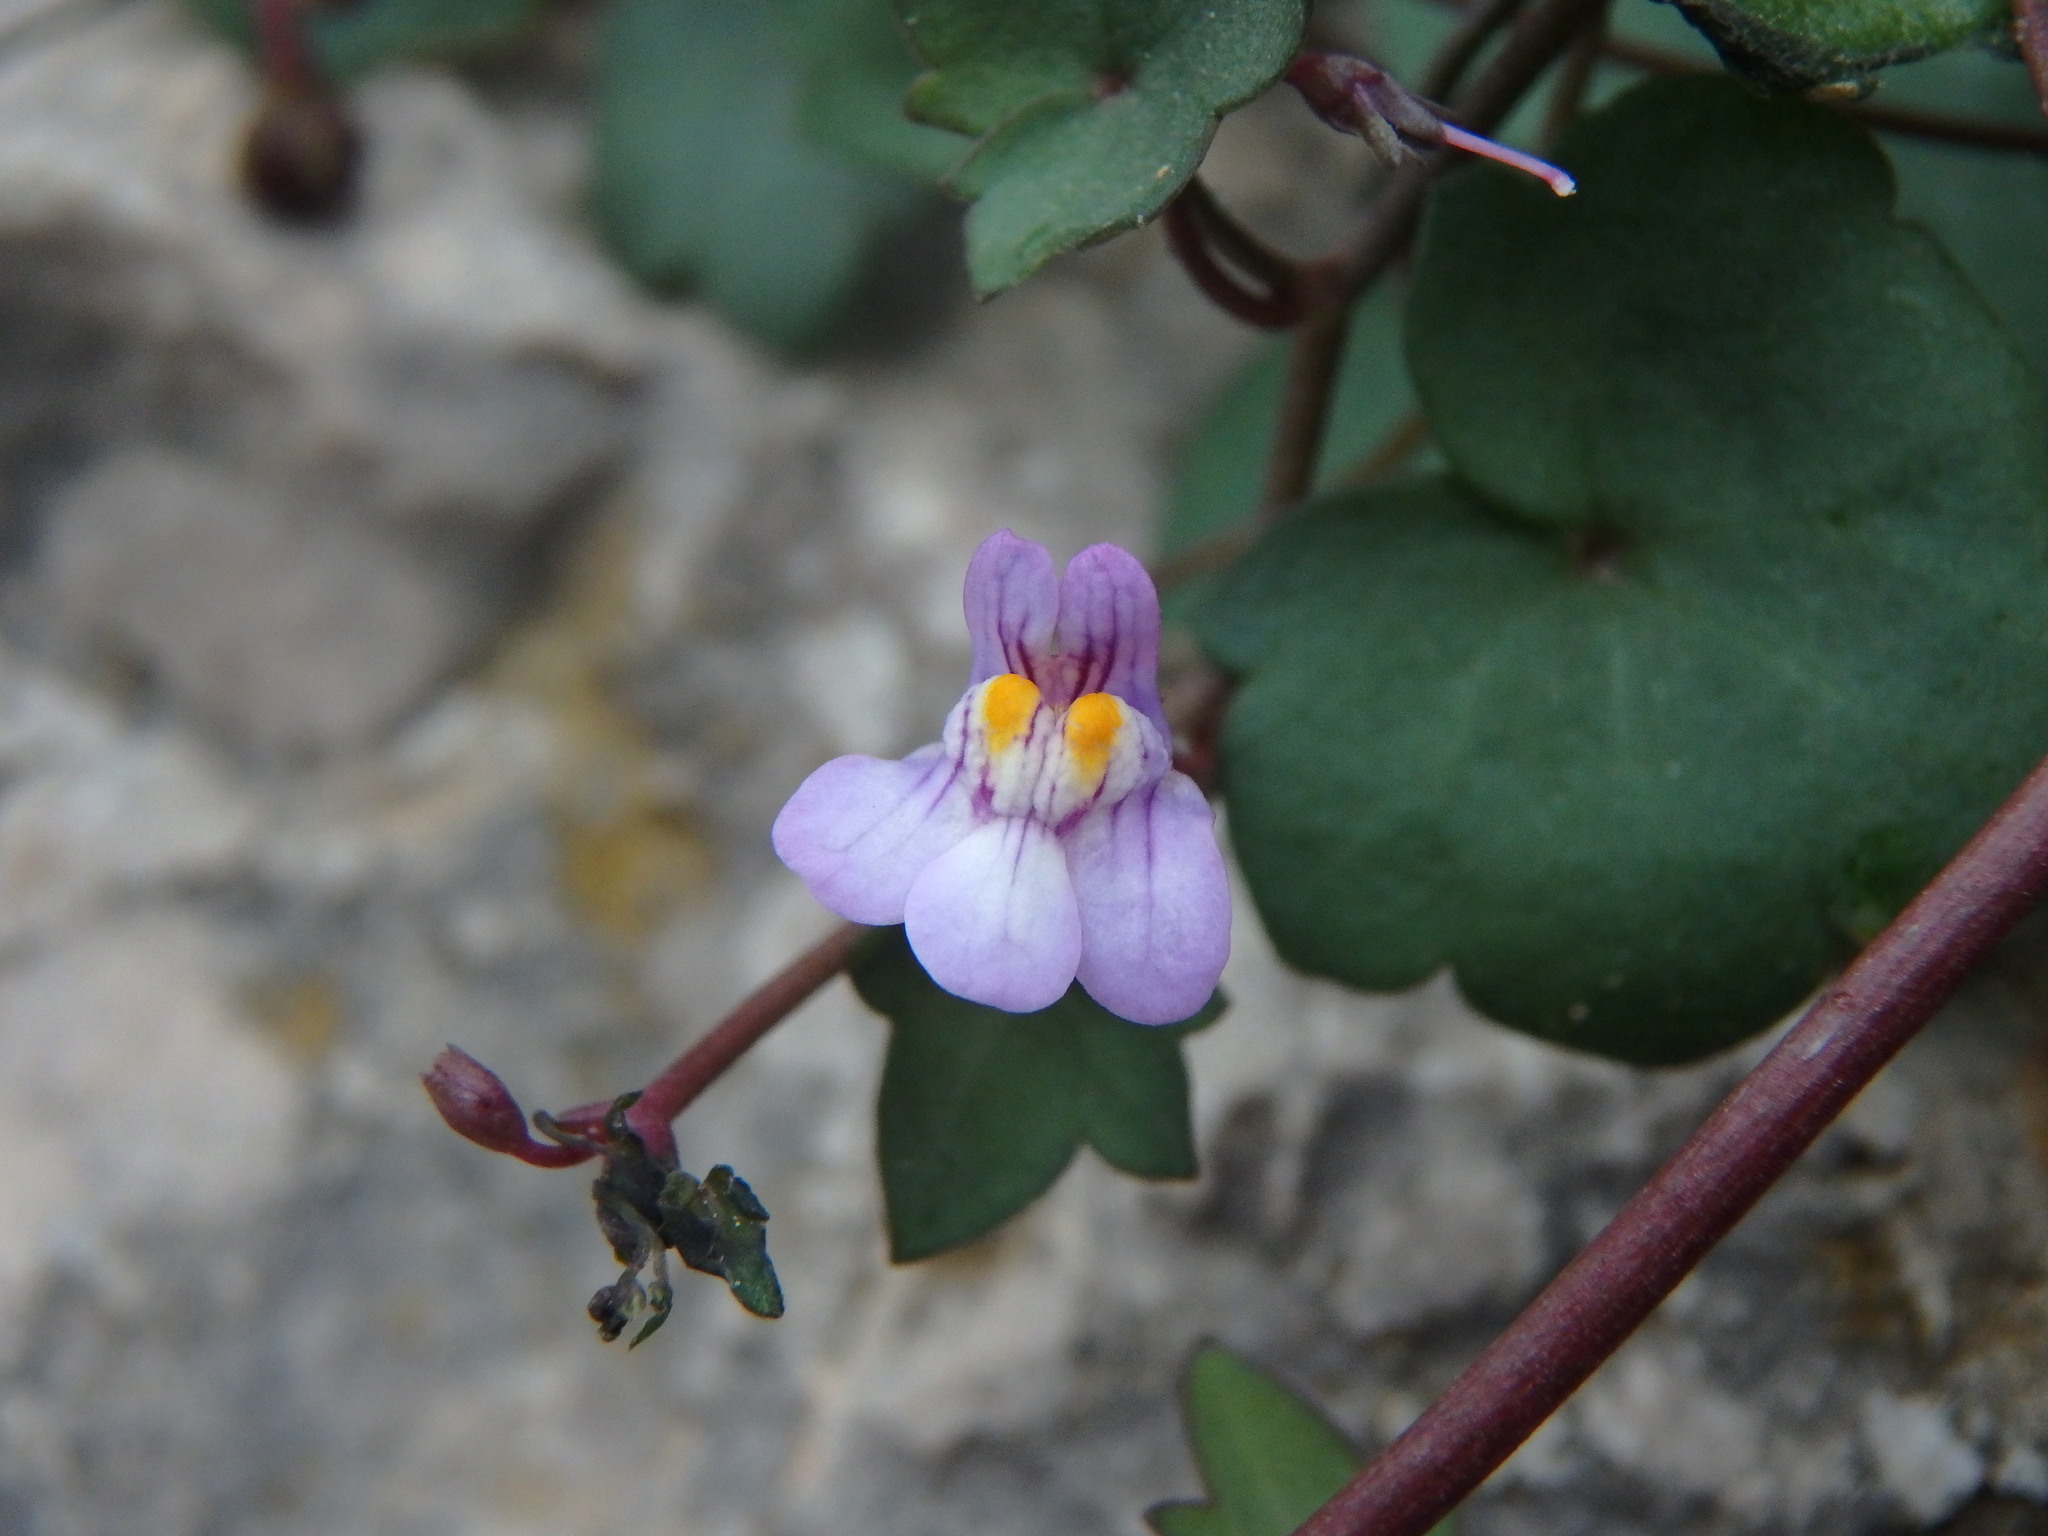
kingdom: Plantae
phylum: Tracheophyta
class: Magnoliopsida
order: Lamiales
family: Plantaginaceae
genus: Cymbalaria
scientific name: Cymbalaria muralis
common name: Ivy-leaved toadflax
